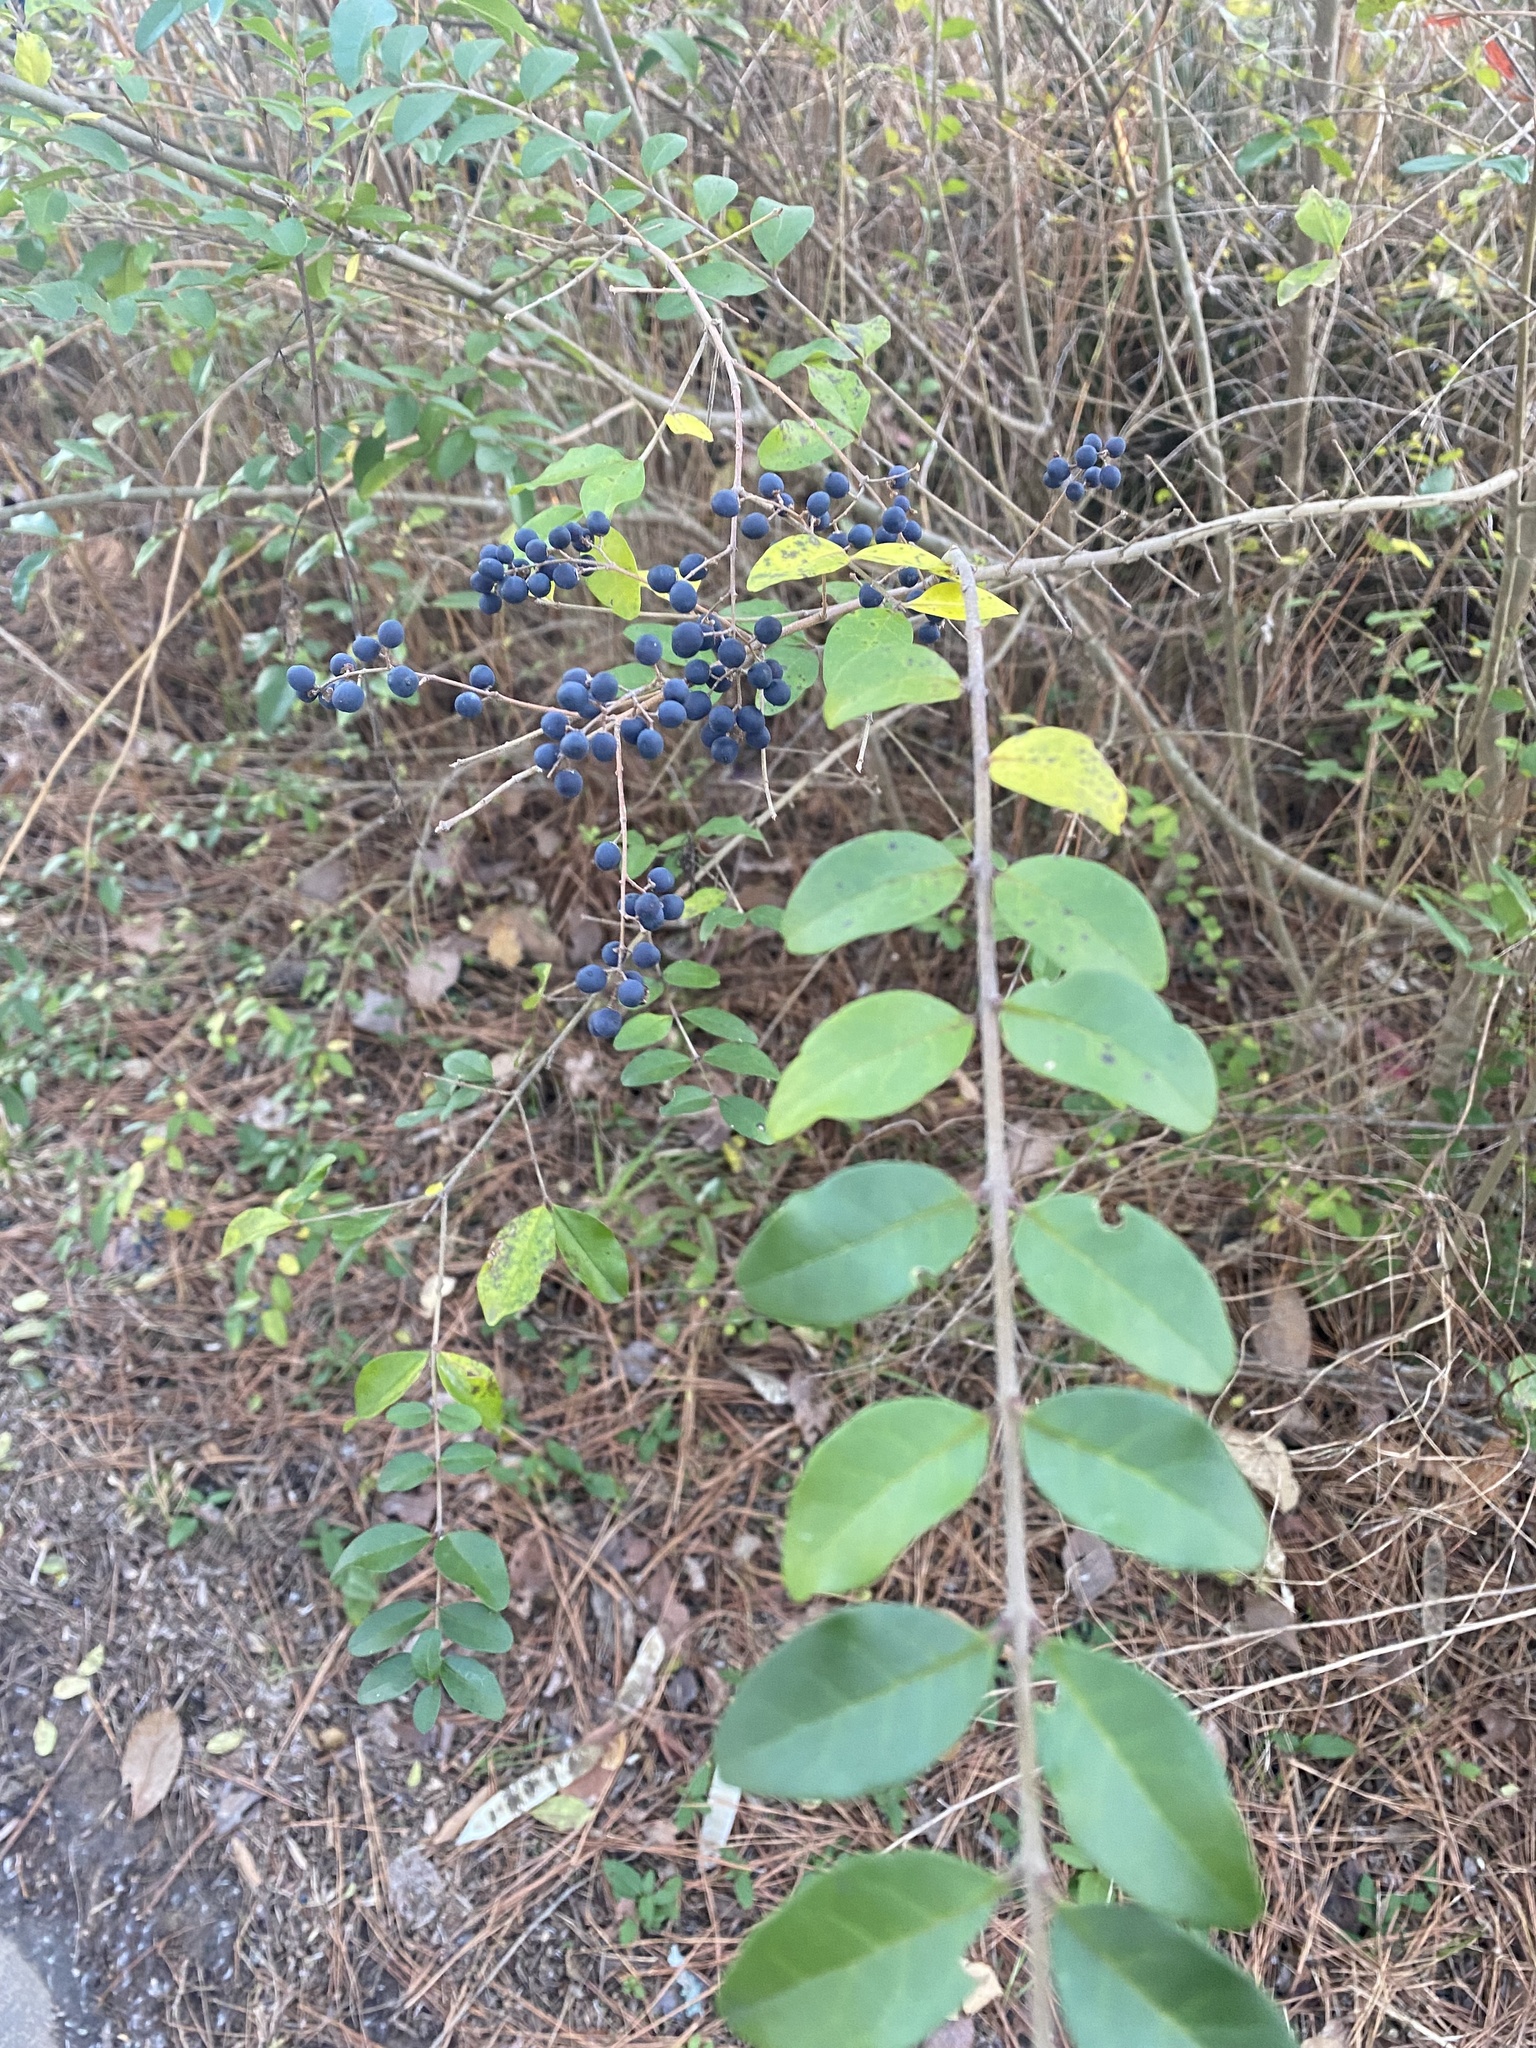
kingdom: Plantae
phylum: Tracheophyta
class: Magnoliopsida
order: Lamiales
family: Oleaceae
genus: Ligustrum
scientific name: Ligustrum sinense
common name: Chinese privet
